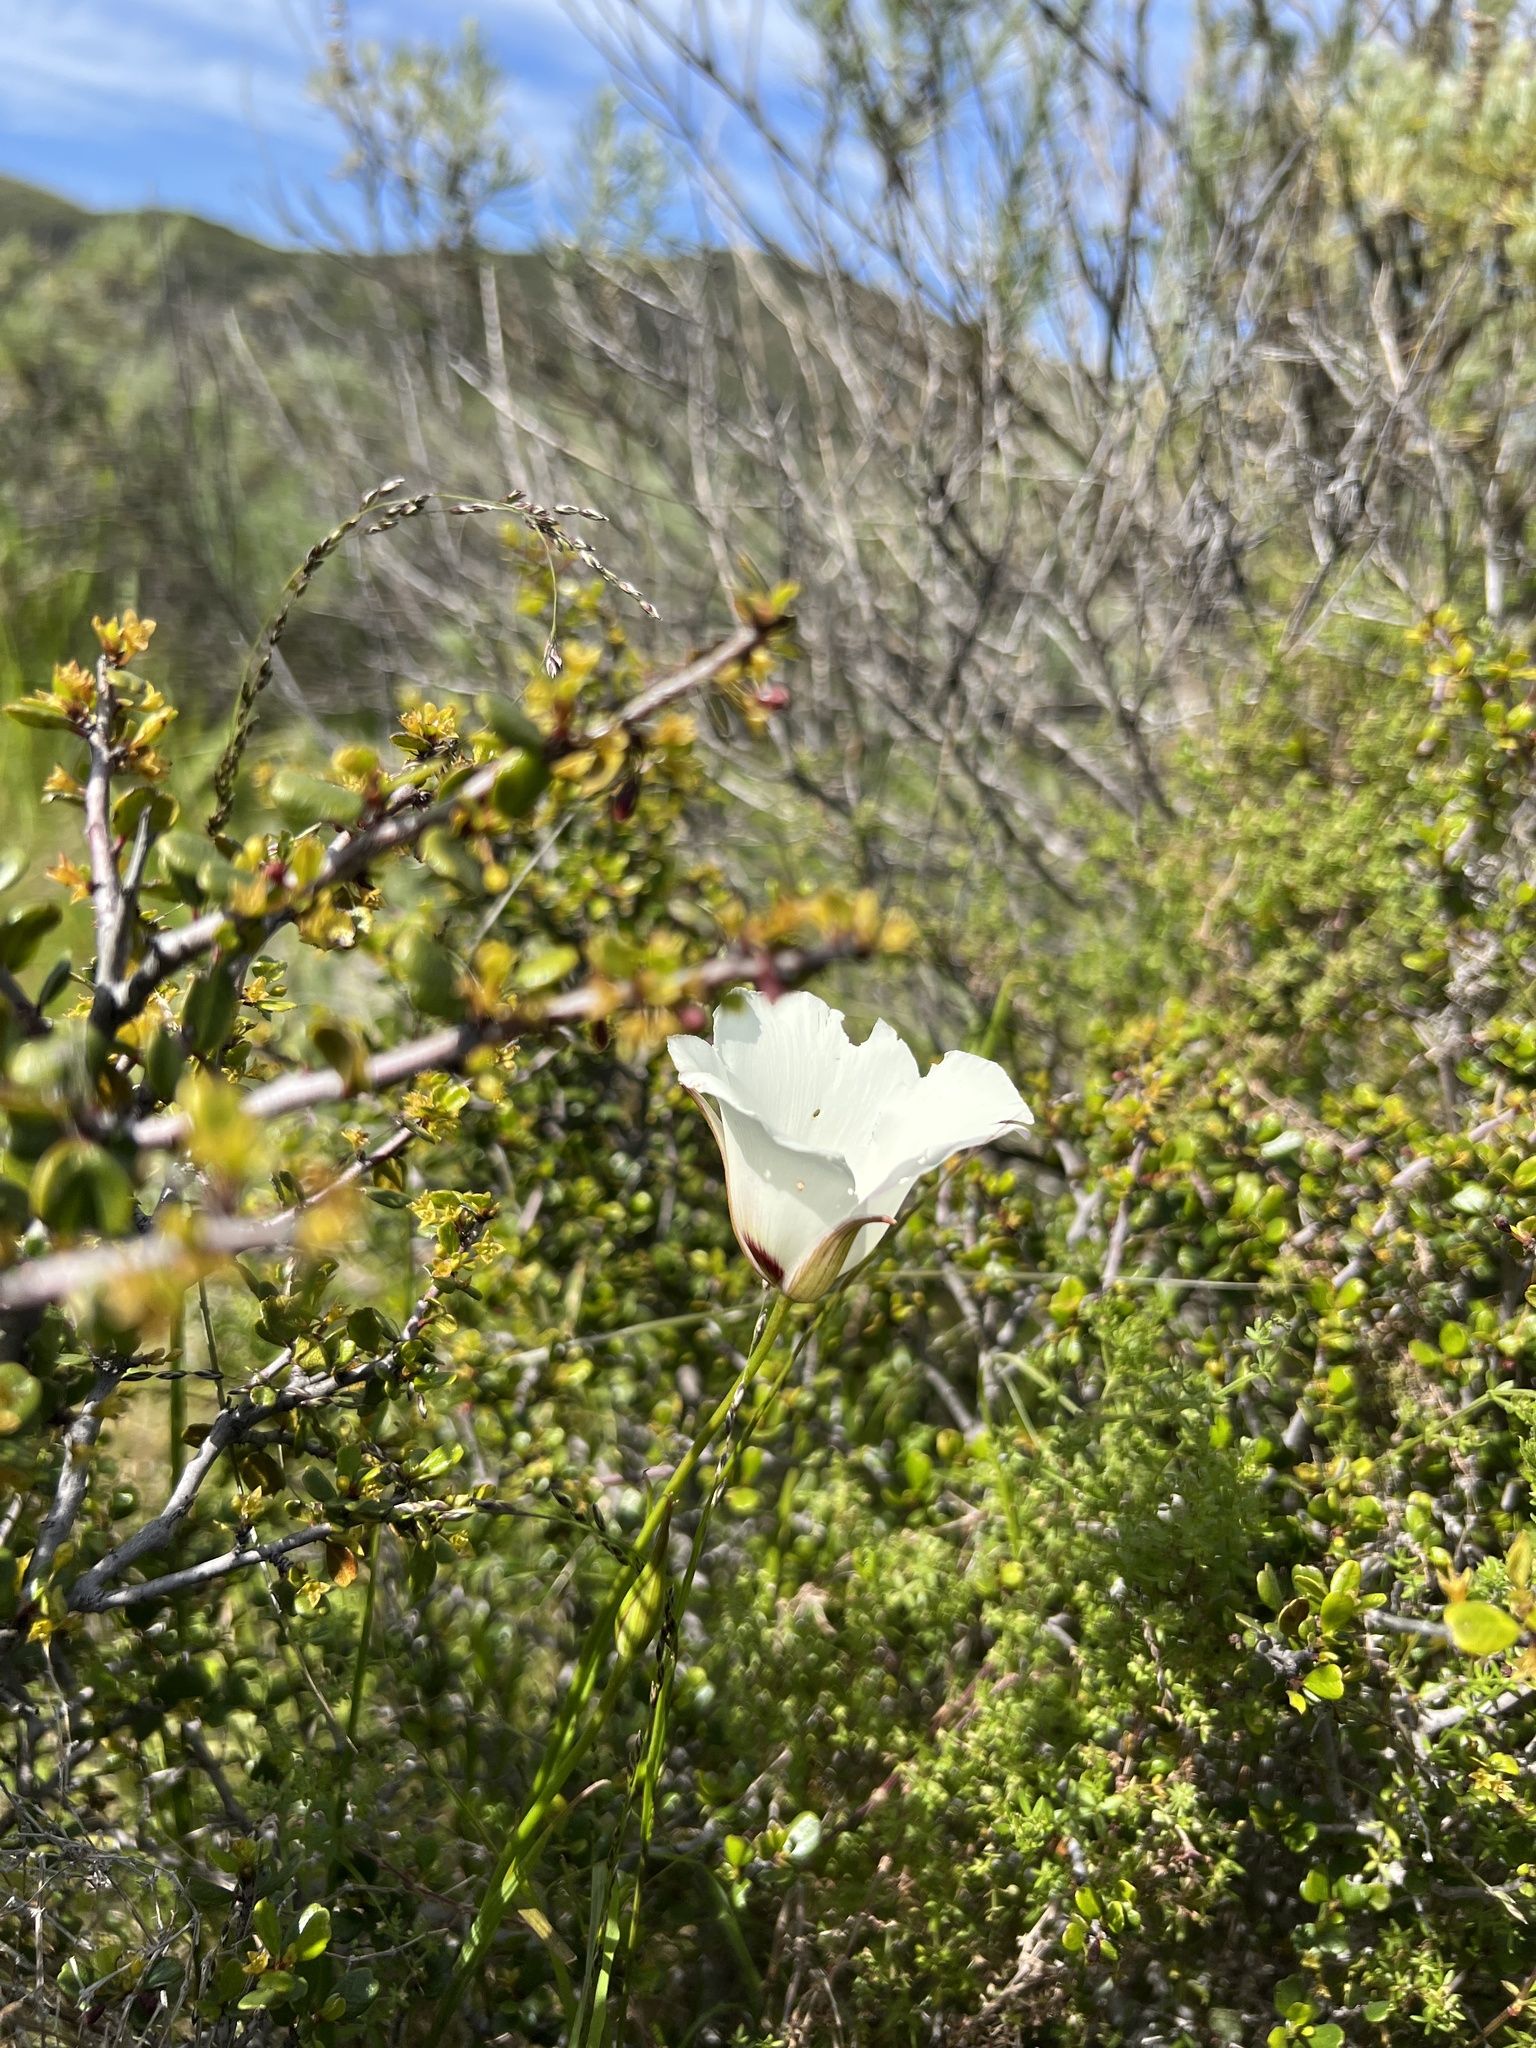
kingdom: Plantae
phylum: Tracheophyta
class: Liliopsida
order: Liliales
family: Liliaceae
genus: Calochortus
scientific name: Calochortus catalinae
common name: Catalina mariposa-lily
